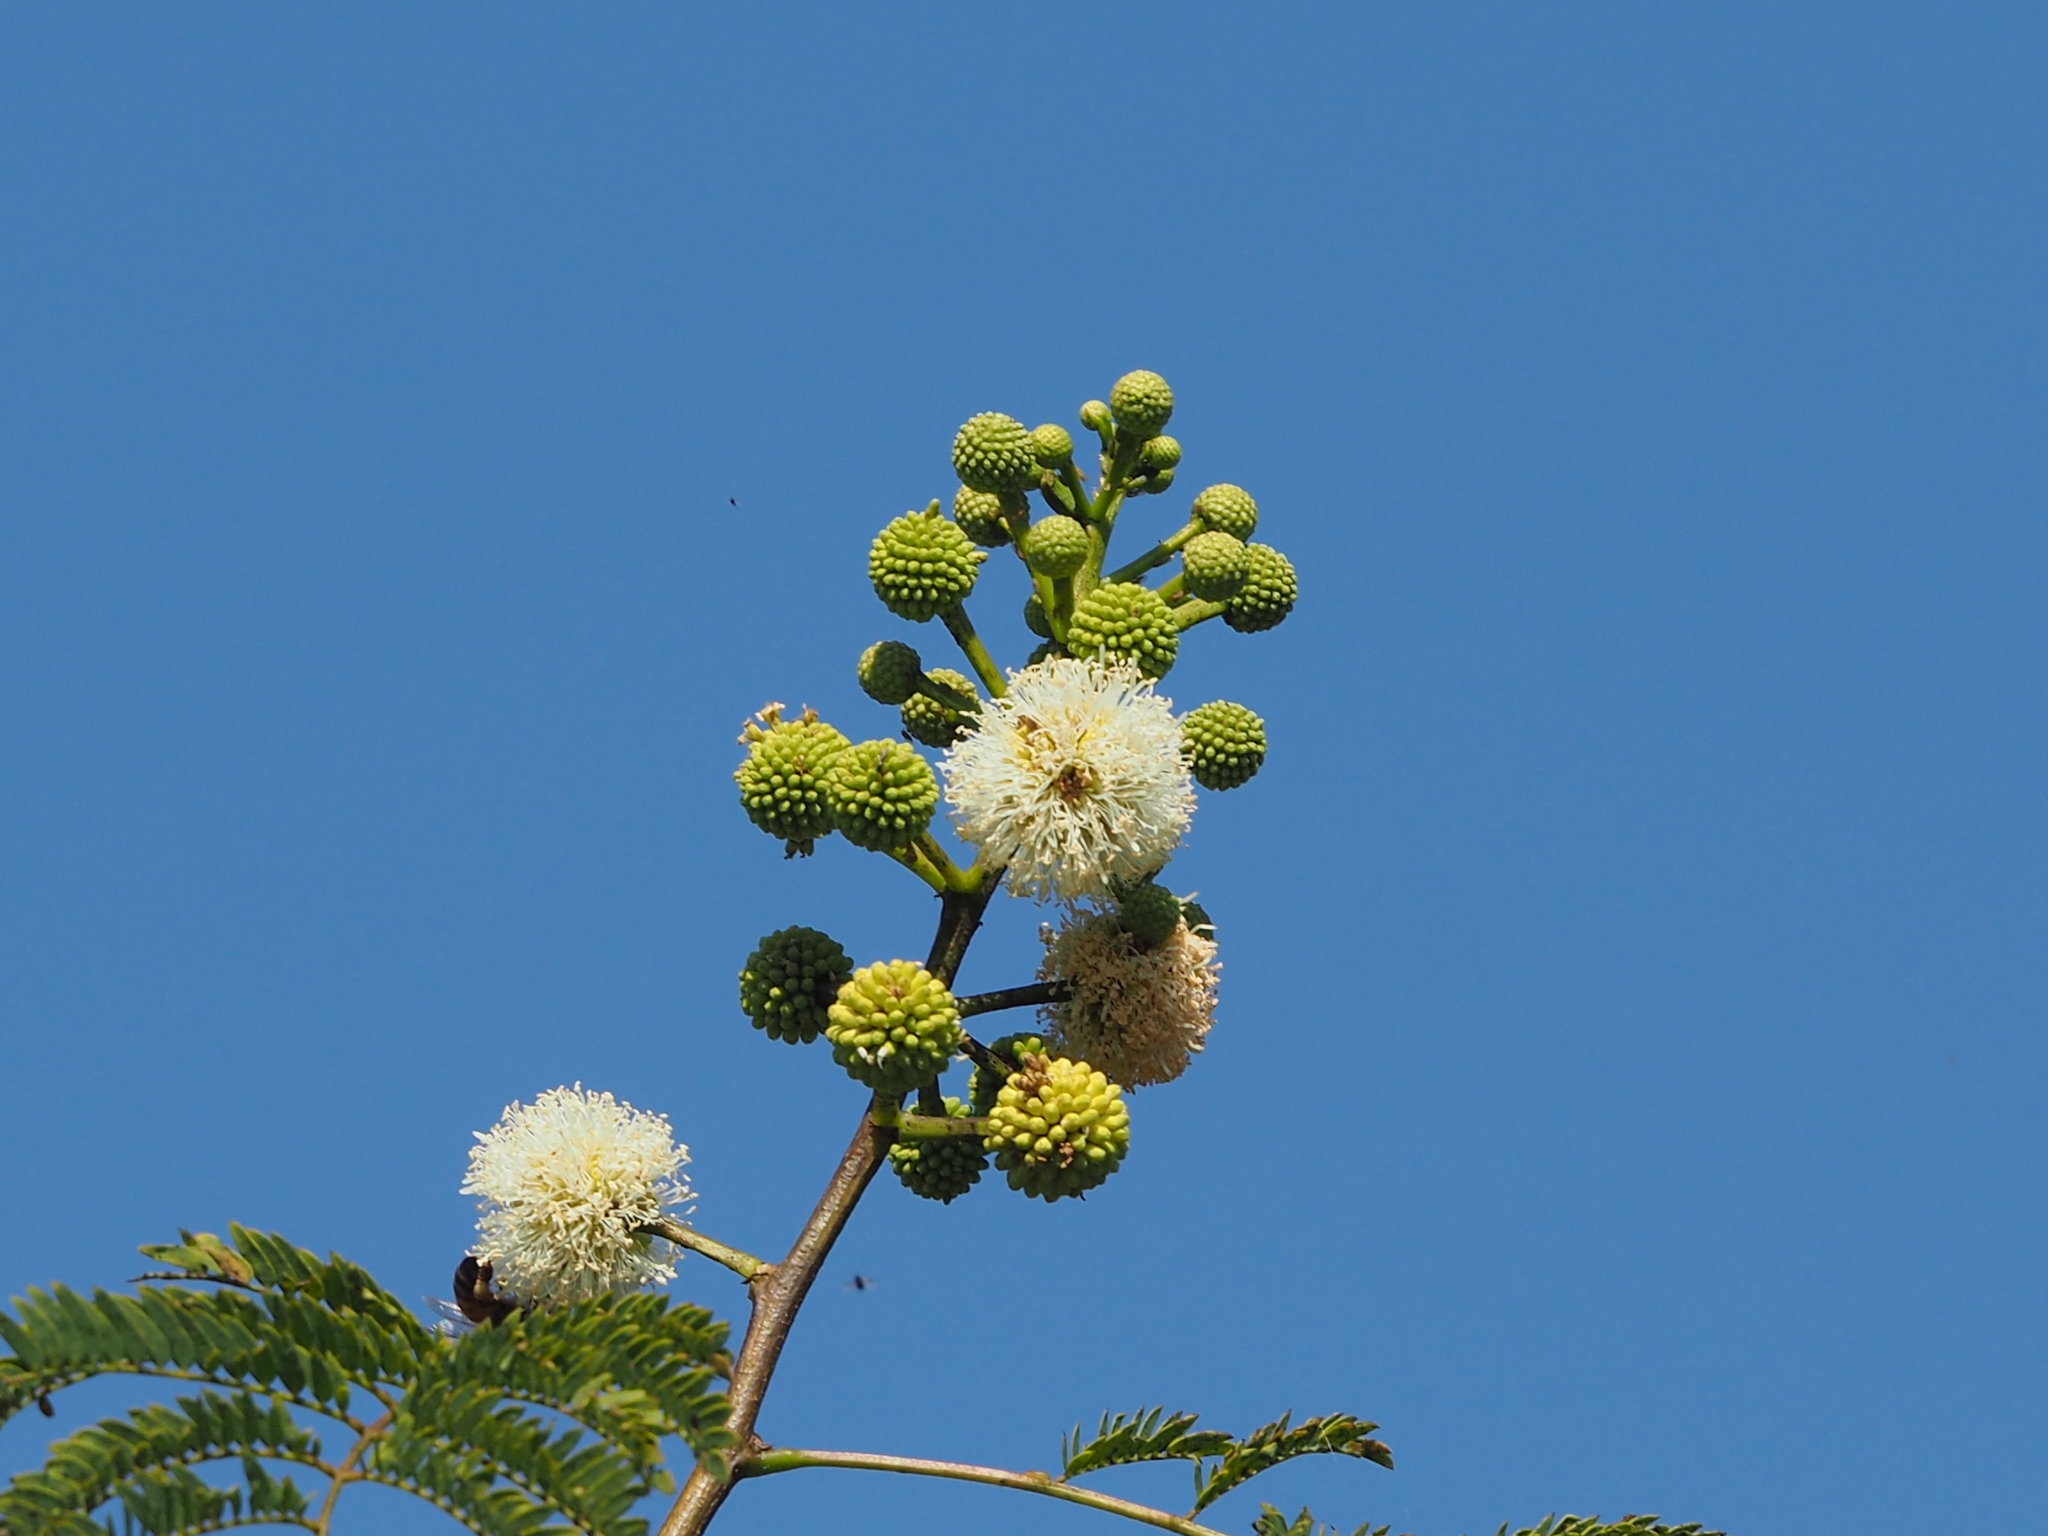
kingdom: Plantae
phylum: Tracheophyta
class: Magnoliopsida
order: Fabales
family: Fabaceae
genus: Leucaena
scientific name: Leucaena leucocephala
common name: White leadtree
